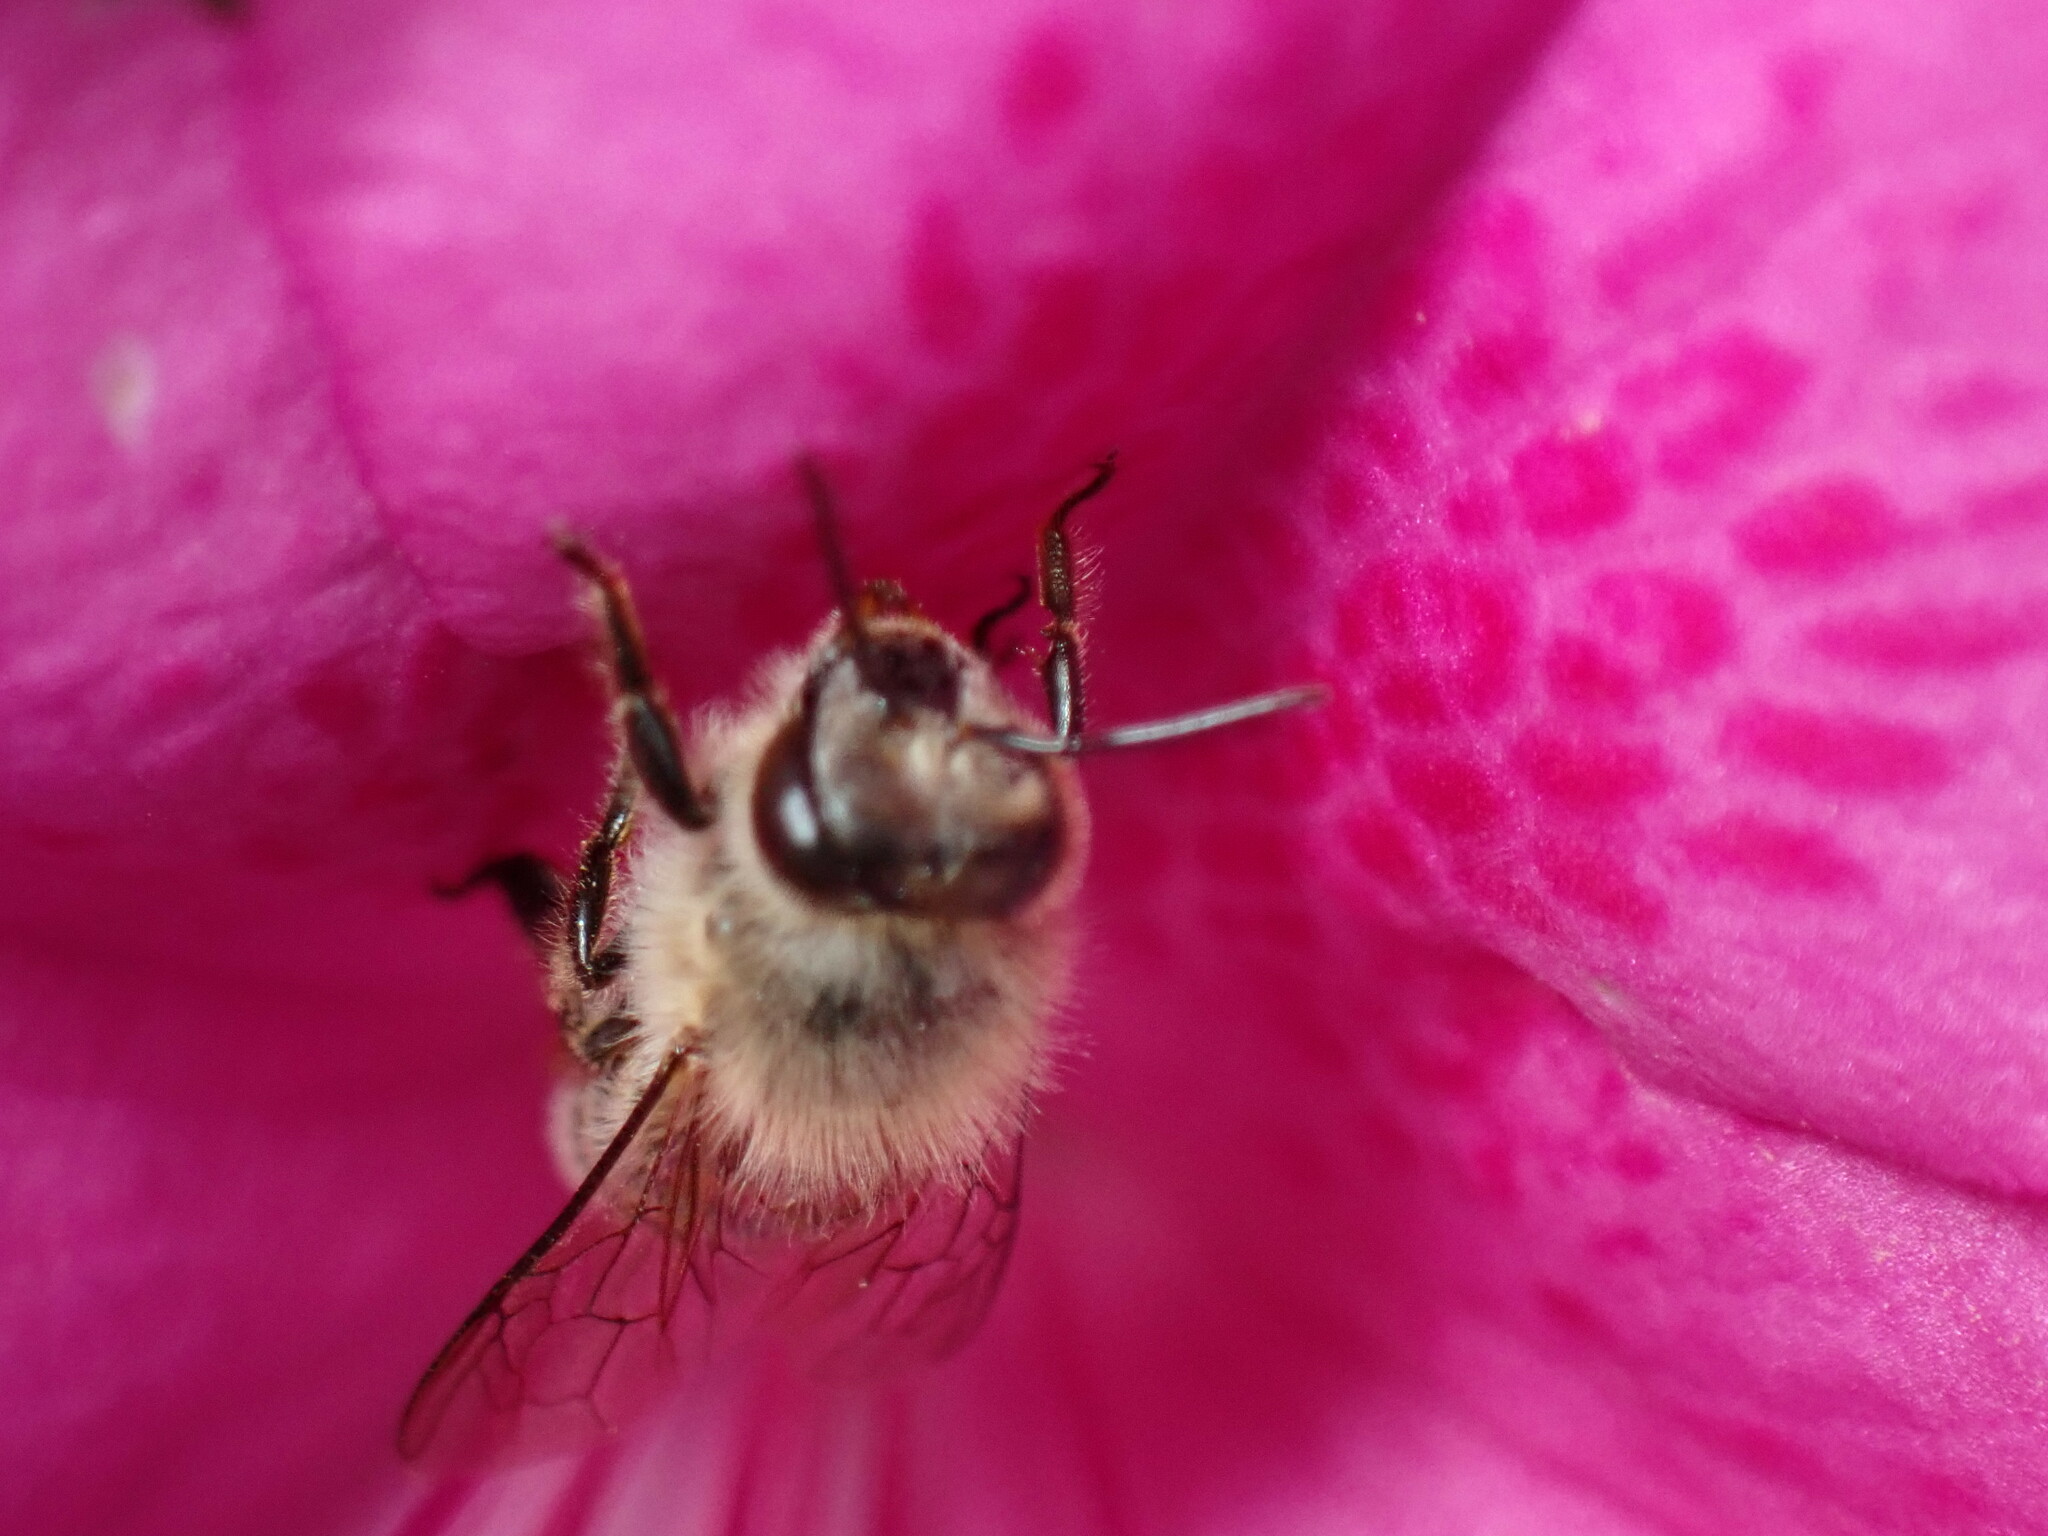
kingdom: Animalia
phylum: Arthropoda
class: Insecta
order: Hymenoptera
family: Apidae
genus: Apis
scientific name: Apis cerana
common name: Honey bee
